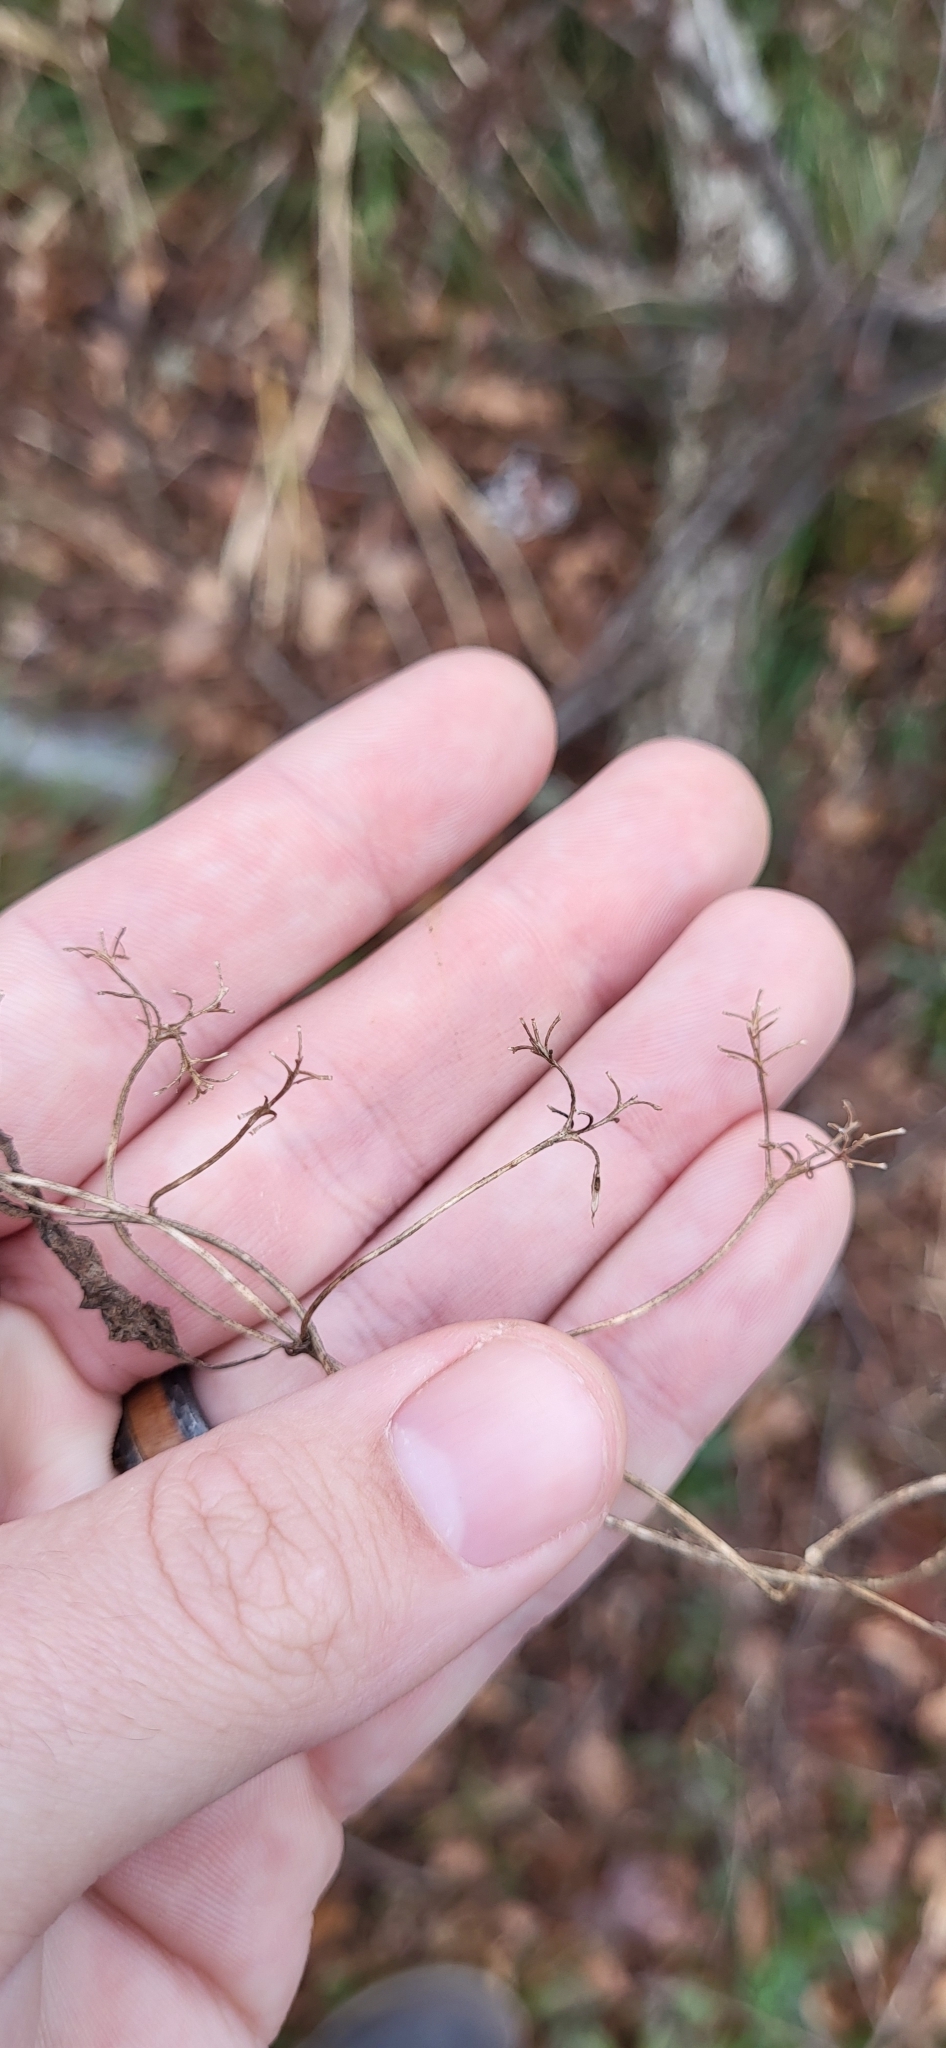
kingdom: Plantae
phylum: Tracheophyta
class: Magnoliopsida
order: Asterales
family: Asteraceae
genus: Mikania
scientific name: Mikania scandens
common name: Climbing hempvine
